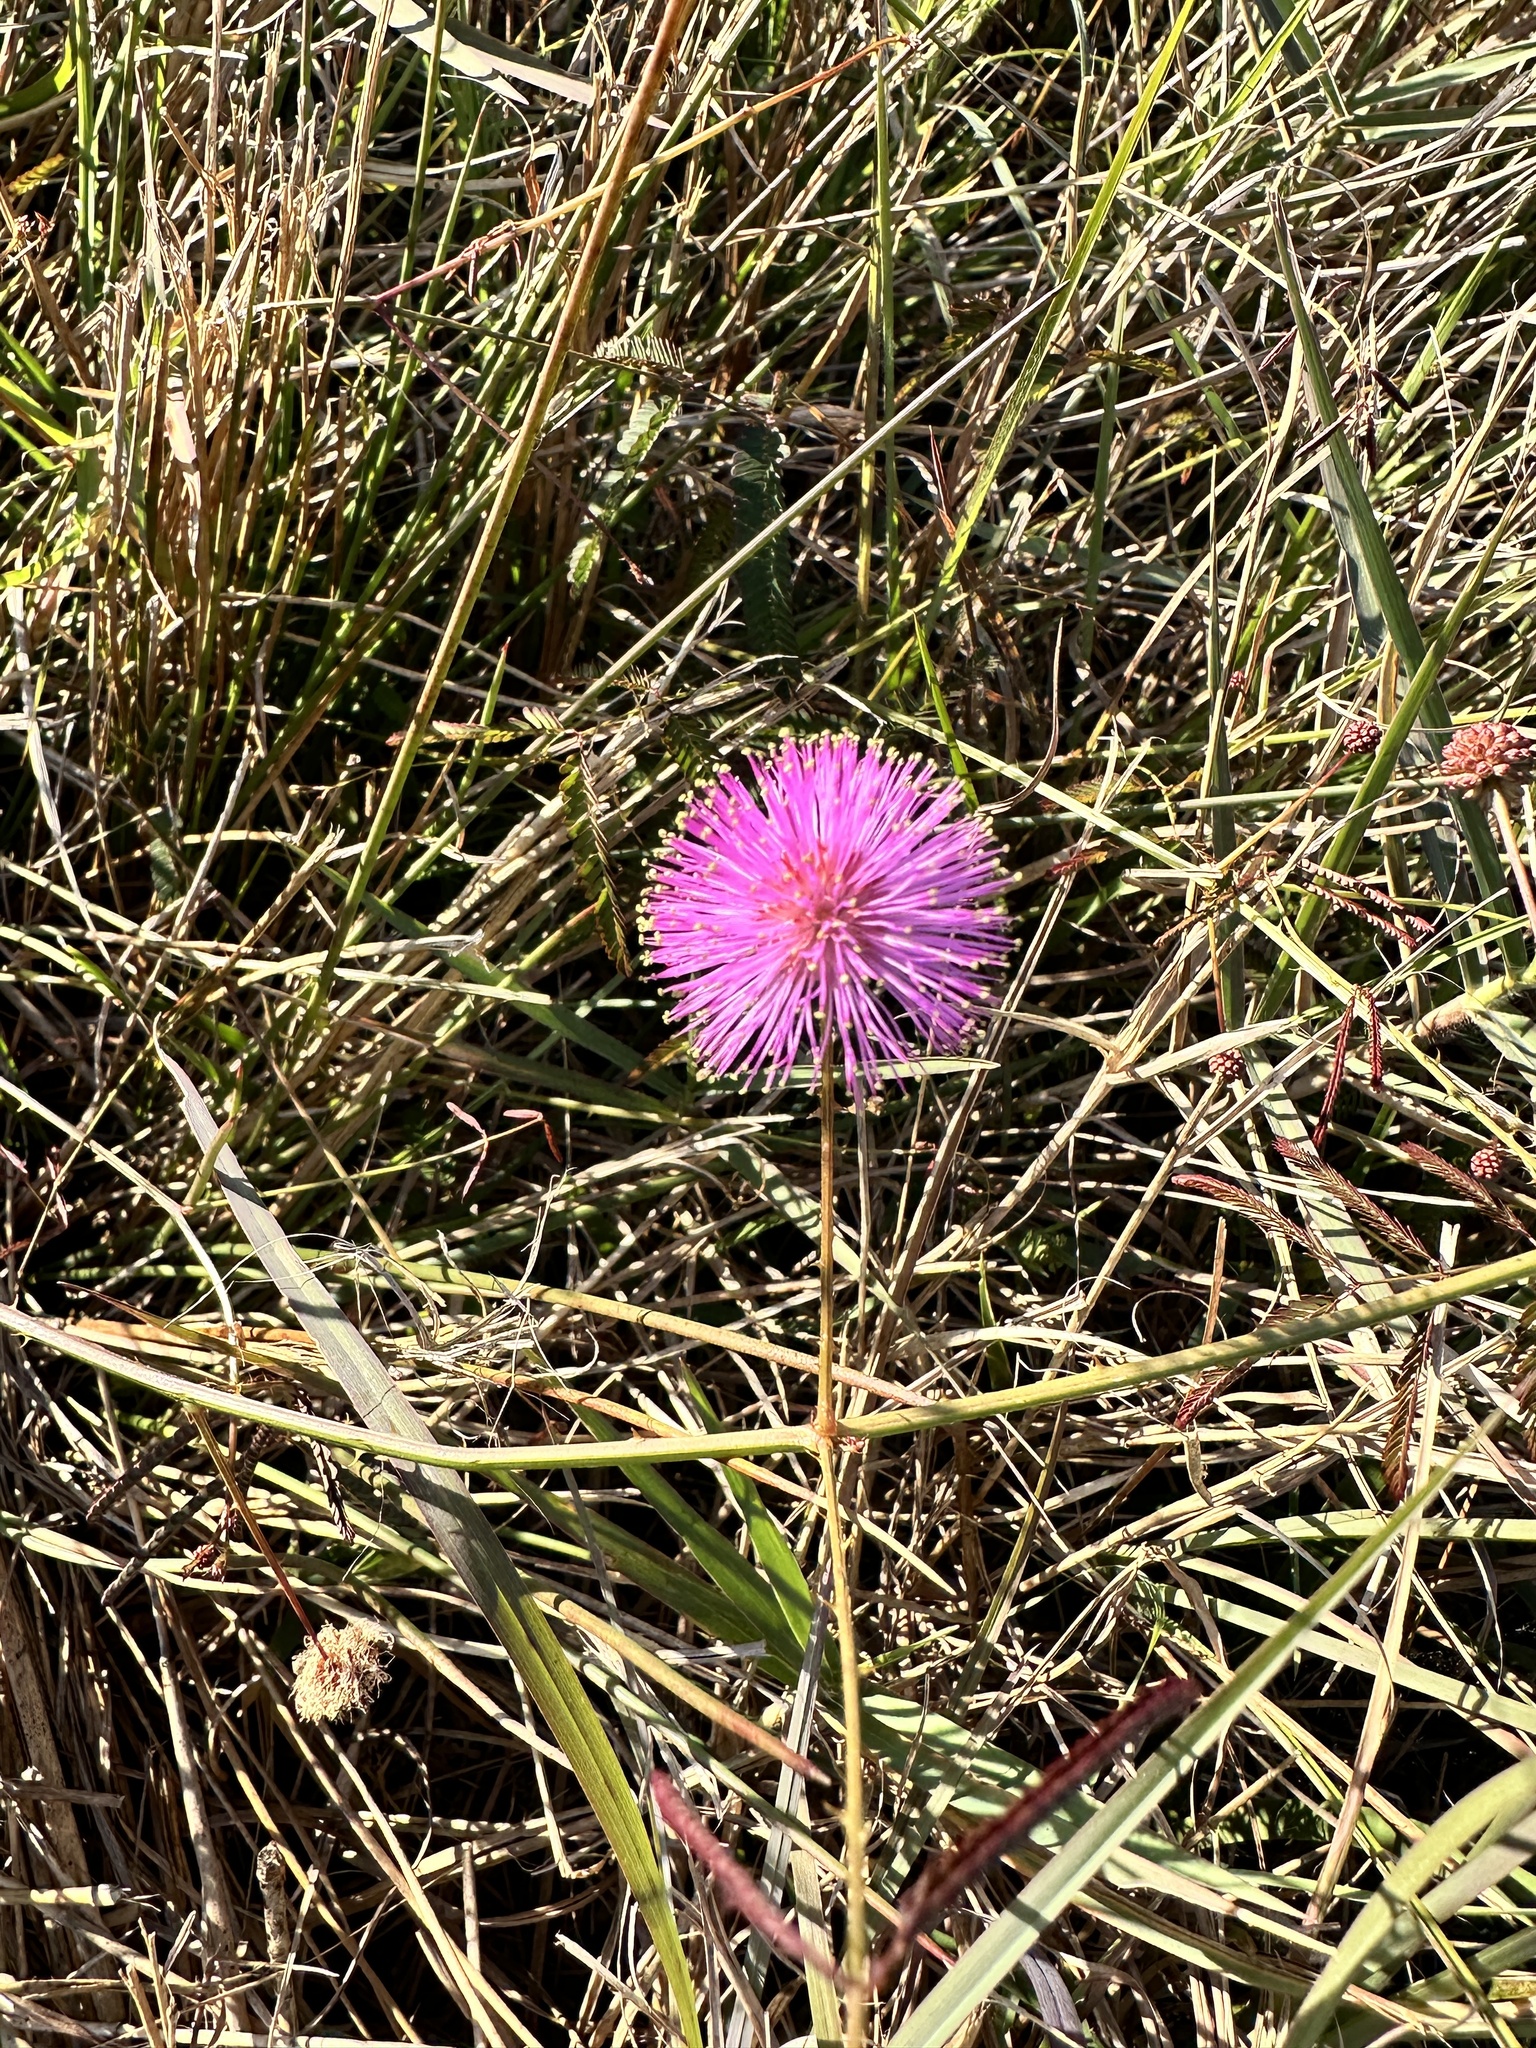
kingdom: Plantae
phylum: Tracheophyta
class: Magnoliopsida
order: Fabales
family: Fabaceae
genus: Mimosa
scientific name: Mimosa quadrivalvis
